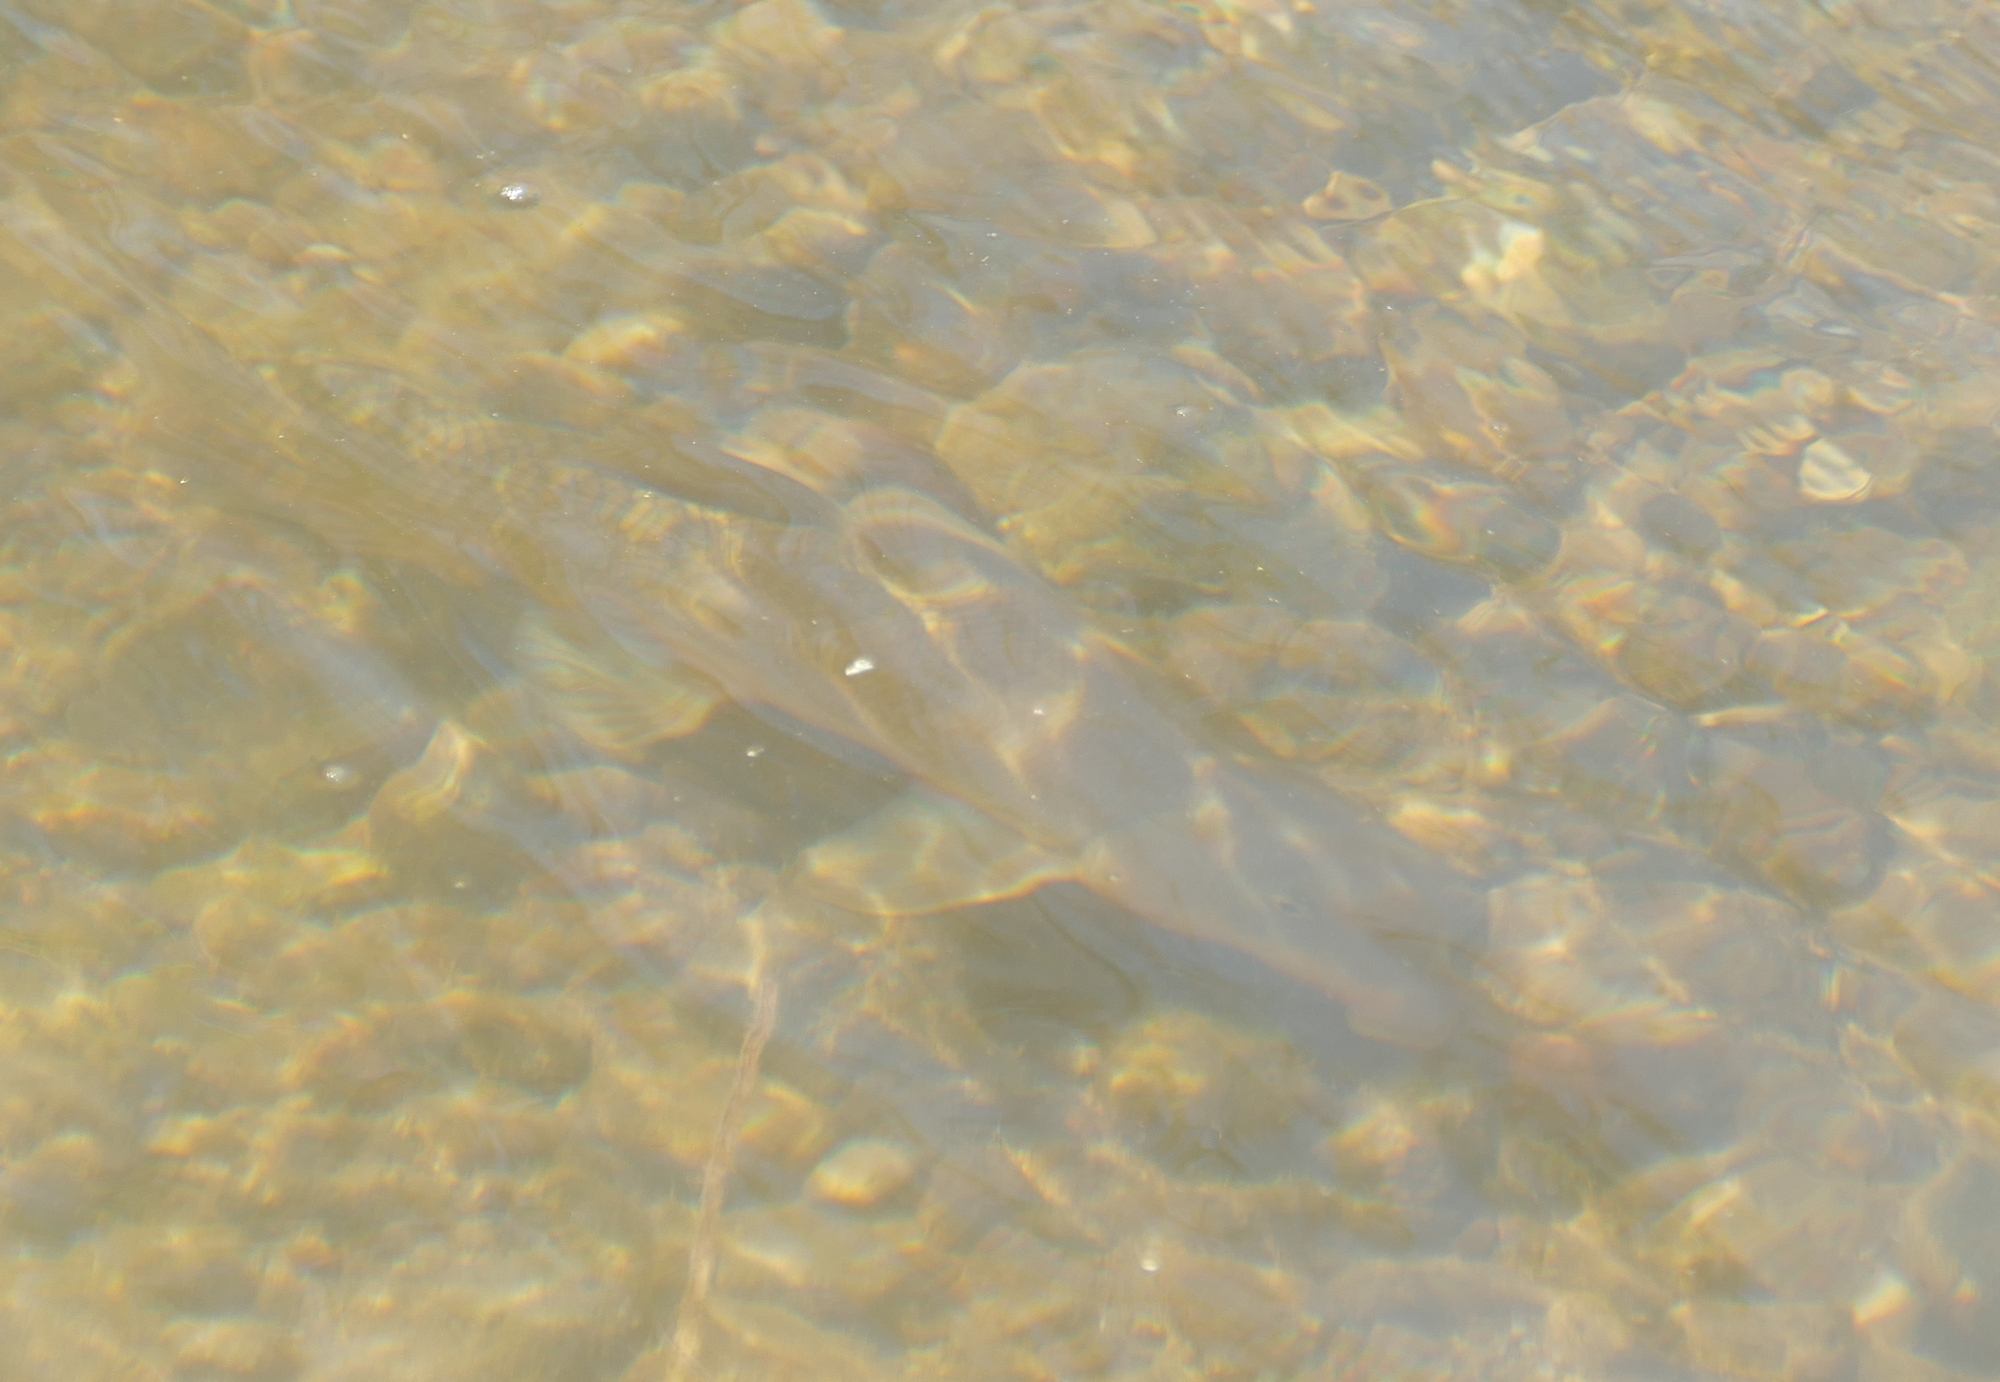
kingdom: Animalia
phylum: Chordata
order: Cypriniformes
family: Catostomidae
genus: Catostomus
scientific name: Catostomus insignis
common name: Sonora sucker
